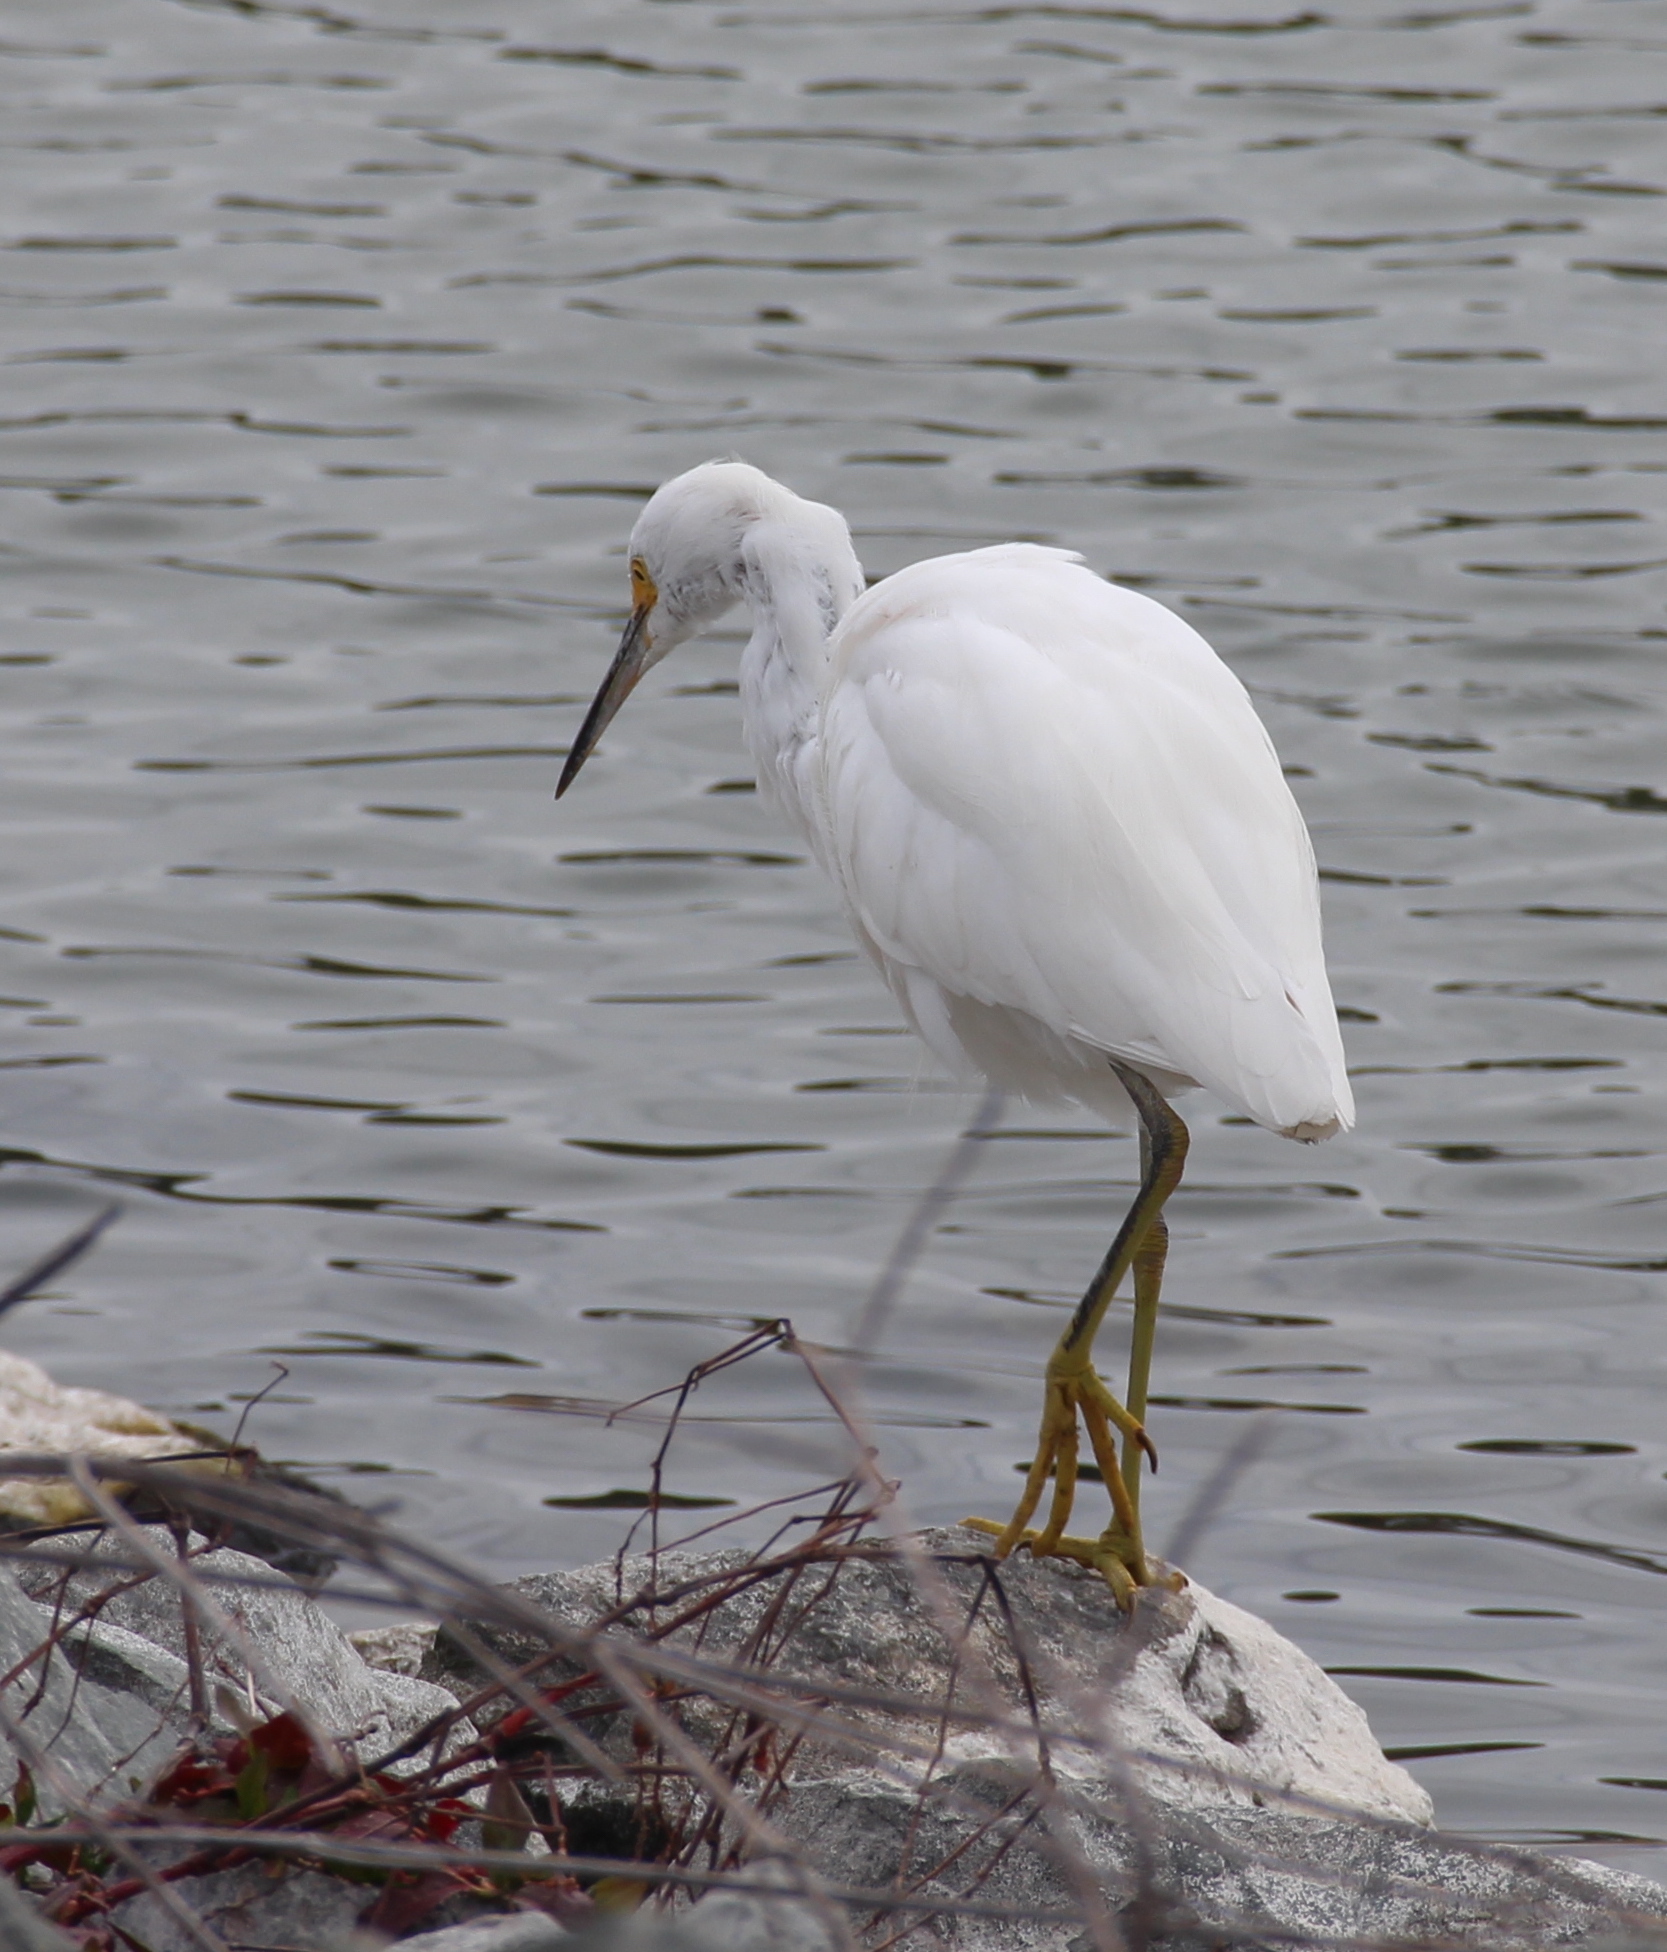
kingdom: Animalia
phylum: Chordata
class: Aves
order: Pelecaniformes
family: Ardeidae
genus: Egretta
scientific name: Egretta thula
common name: Snowy egret
